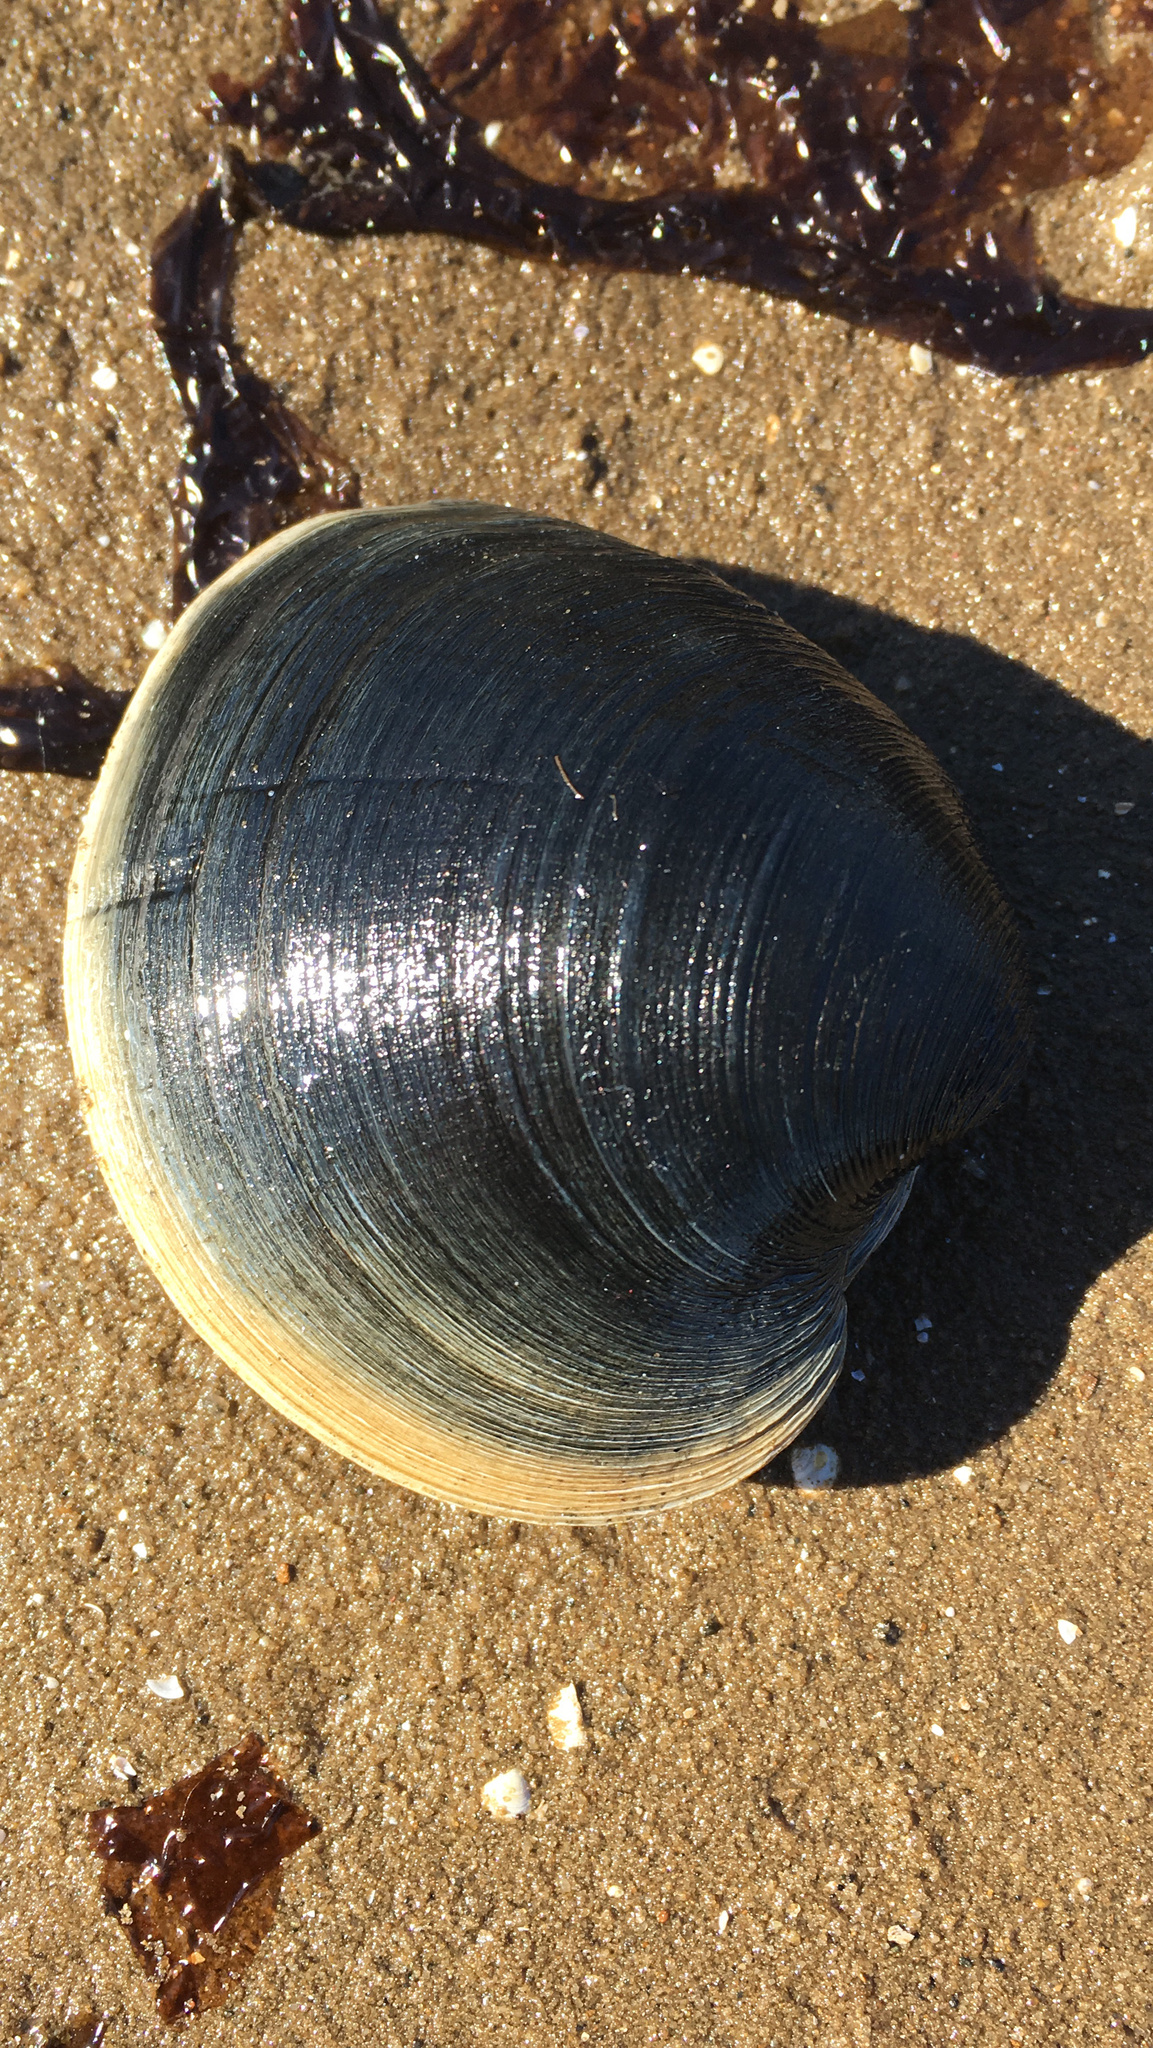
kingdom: Animalia
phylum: Mollusca
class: Bivalvia
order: Venerida
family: Veneridae
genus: Mercenaria
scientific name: Mercenaria mercenaria
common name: American hard-shelled clam
